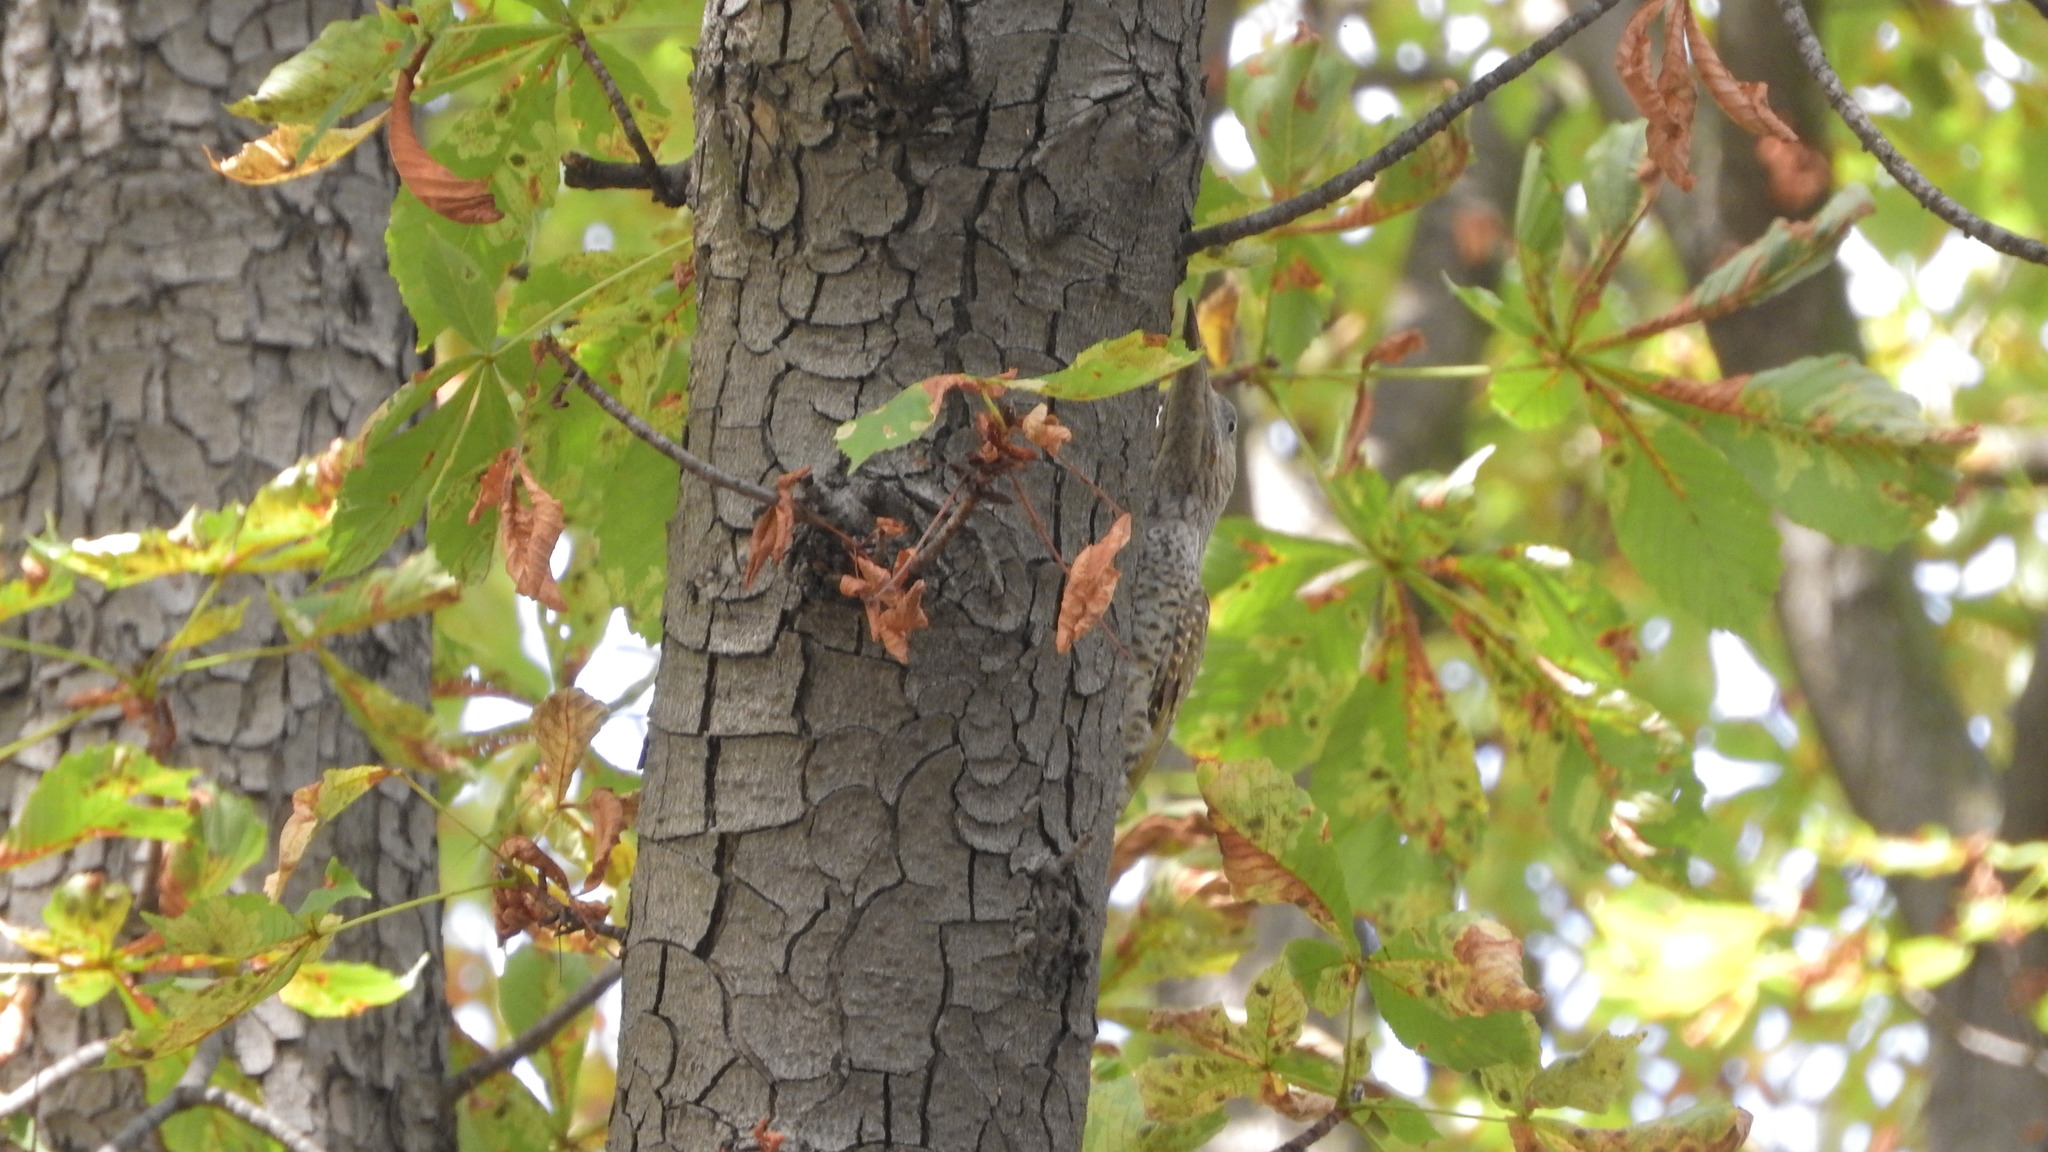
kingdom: Animalia
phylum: Chordata
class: Aves
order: Piciformes
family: Picidae
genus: Picus
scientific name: Picus viridis
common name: European green woodpecker
